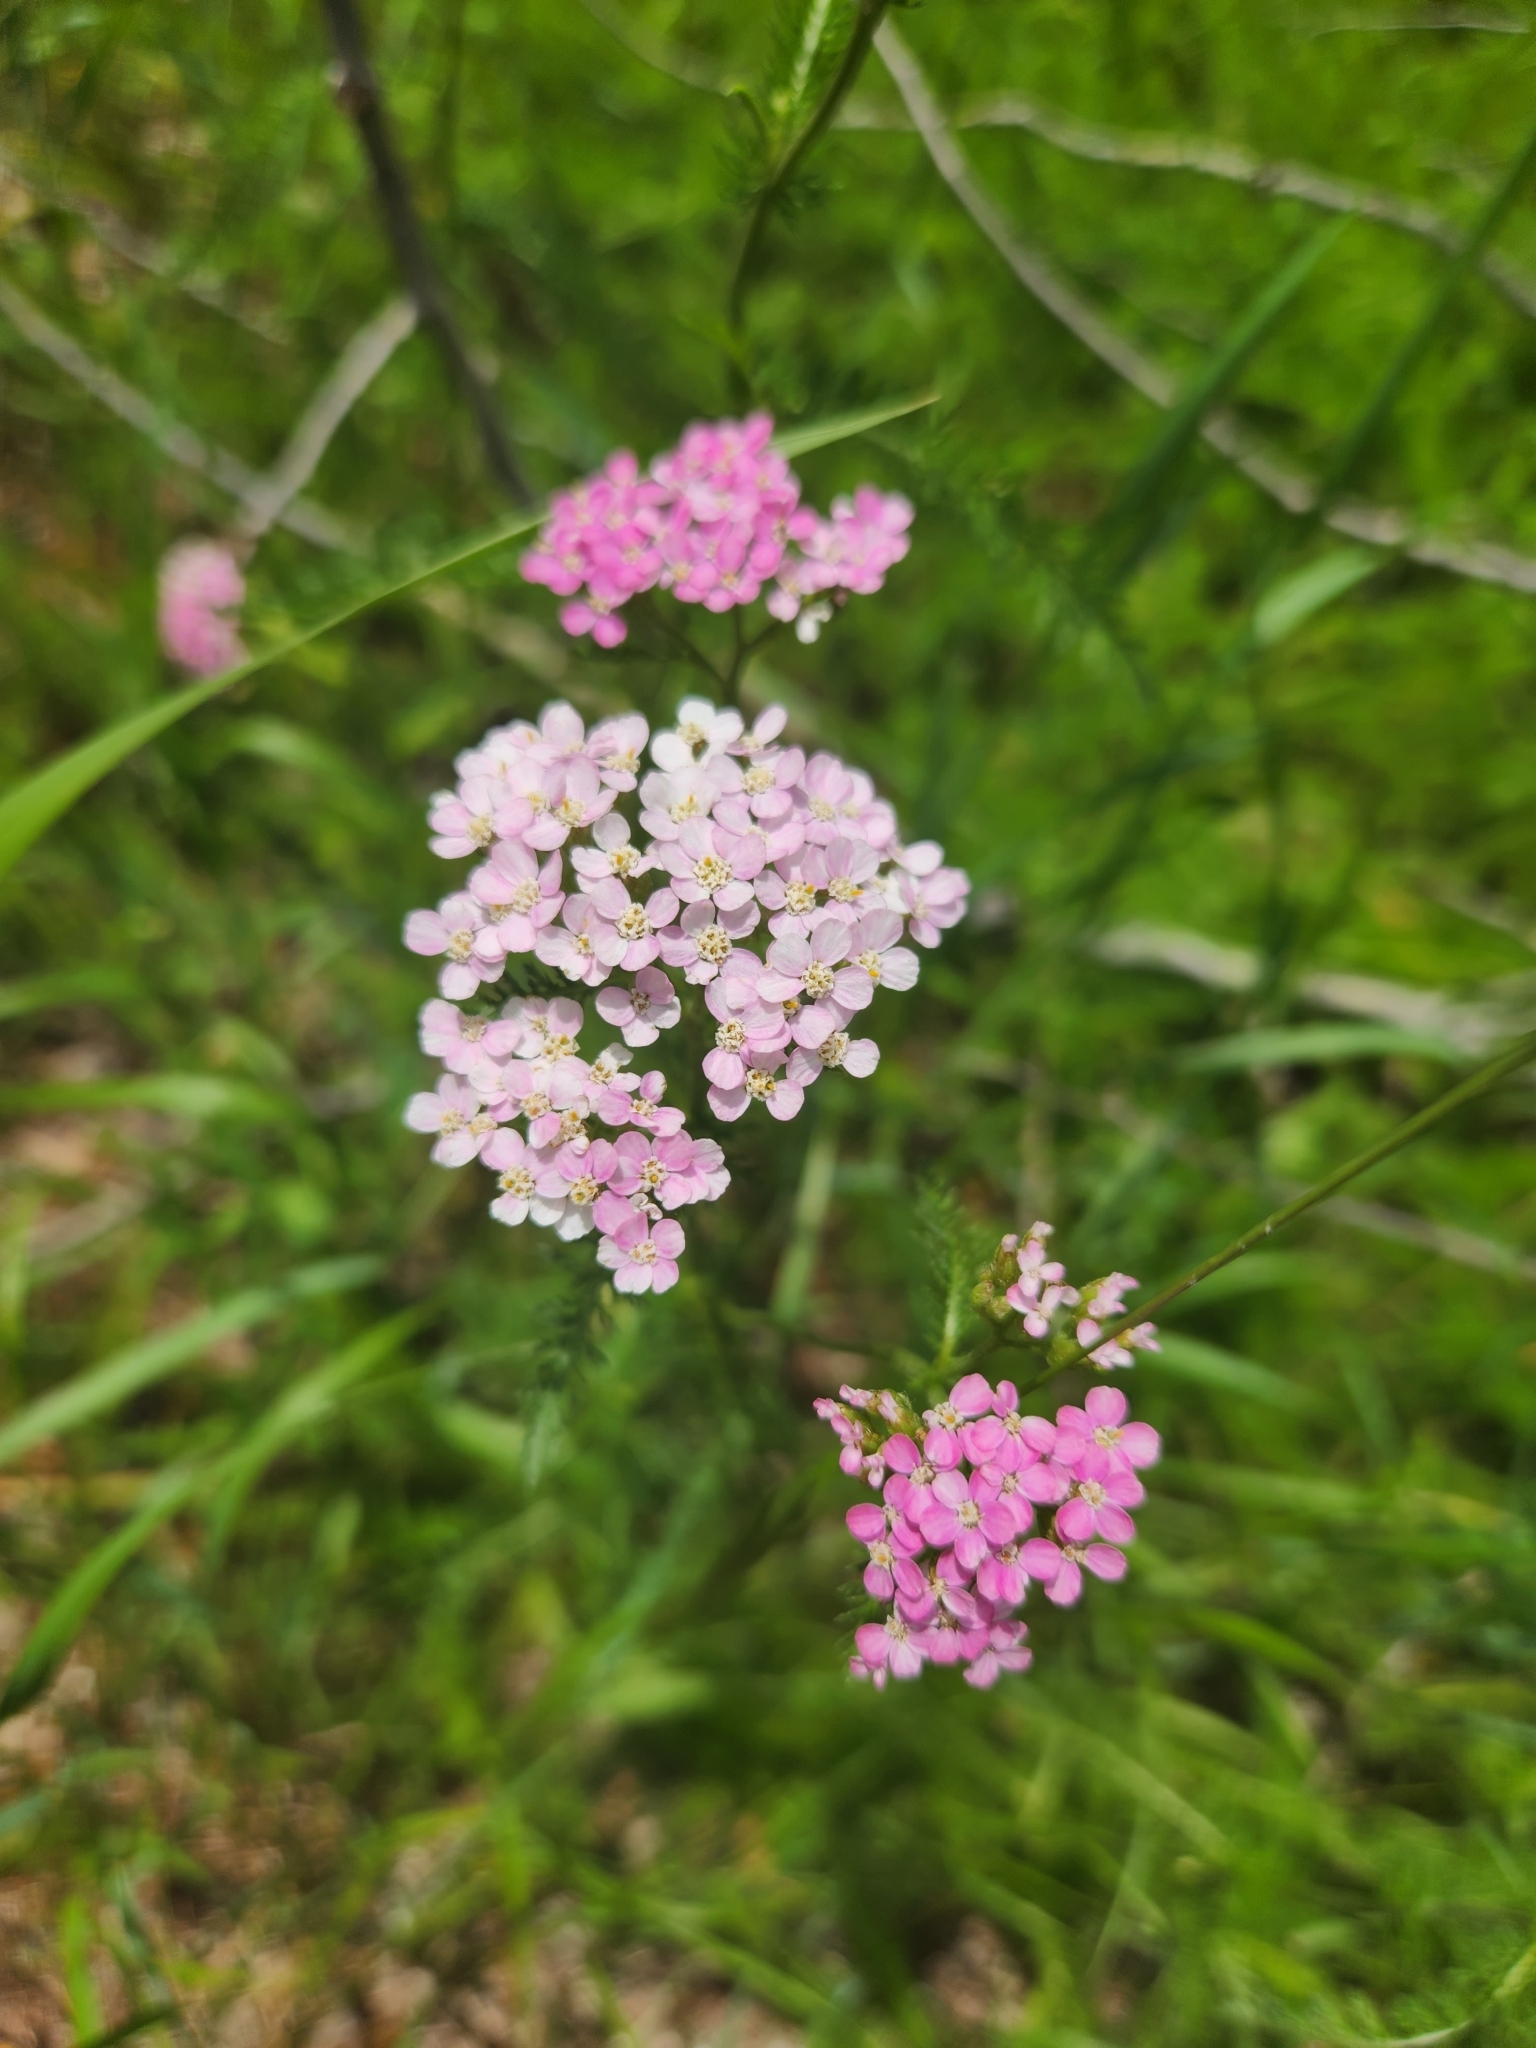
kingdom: Plantae
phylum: Tracheophyta
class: Magnoliopsida
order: Asterales
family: Asteraceae
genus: Achillea
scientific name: Achillea millefolium
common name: Yarrow
